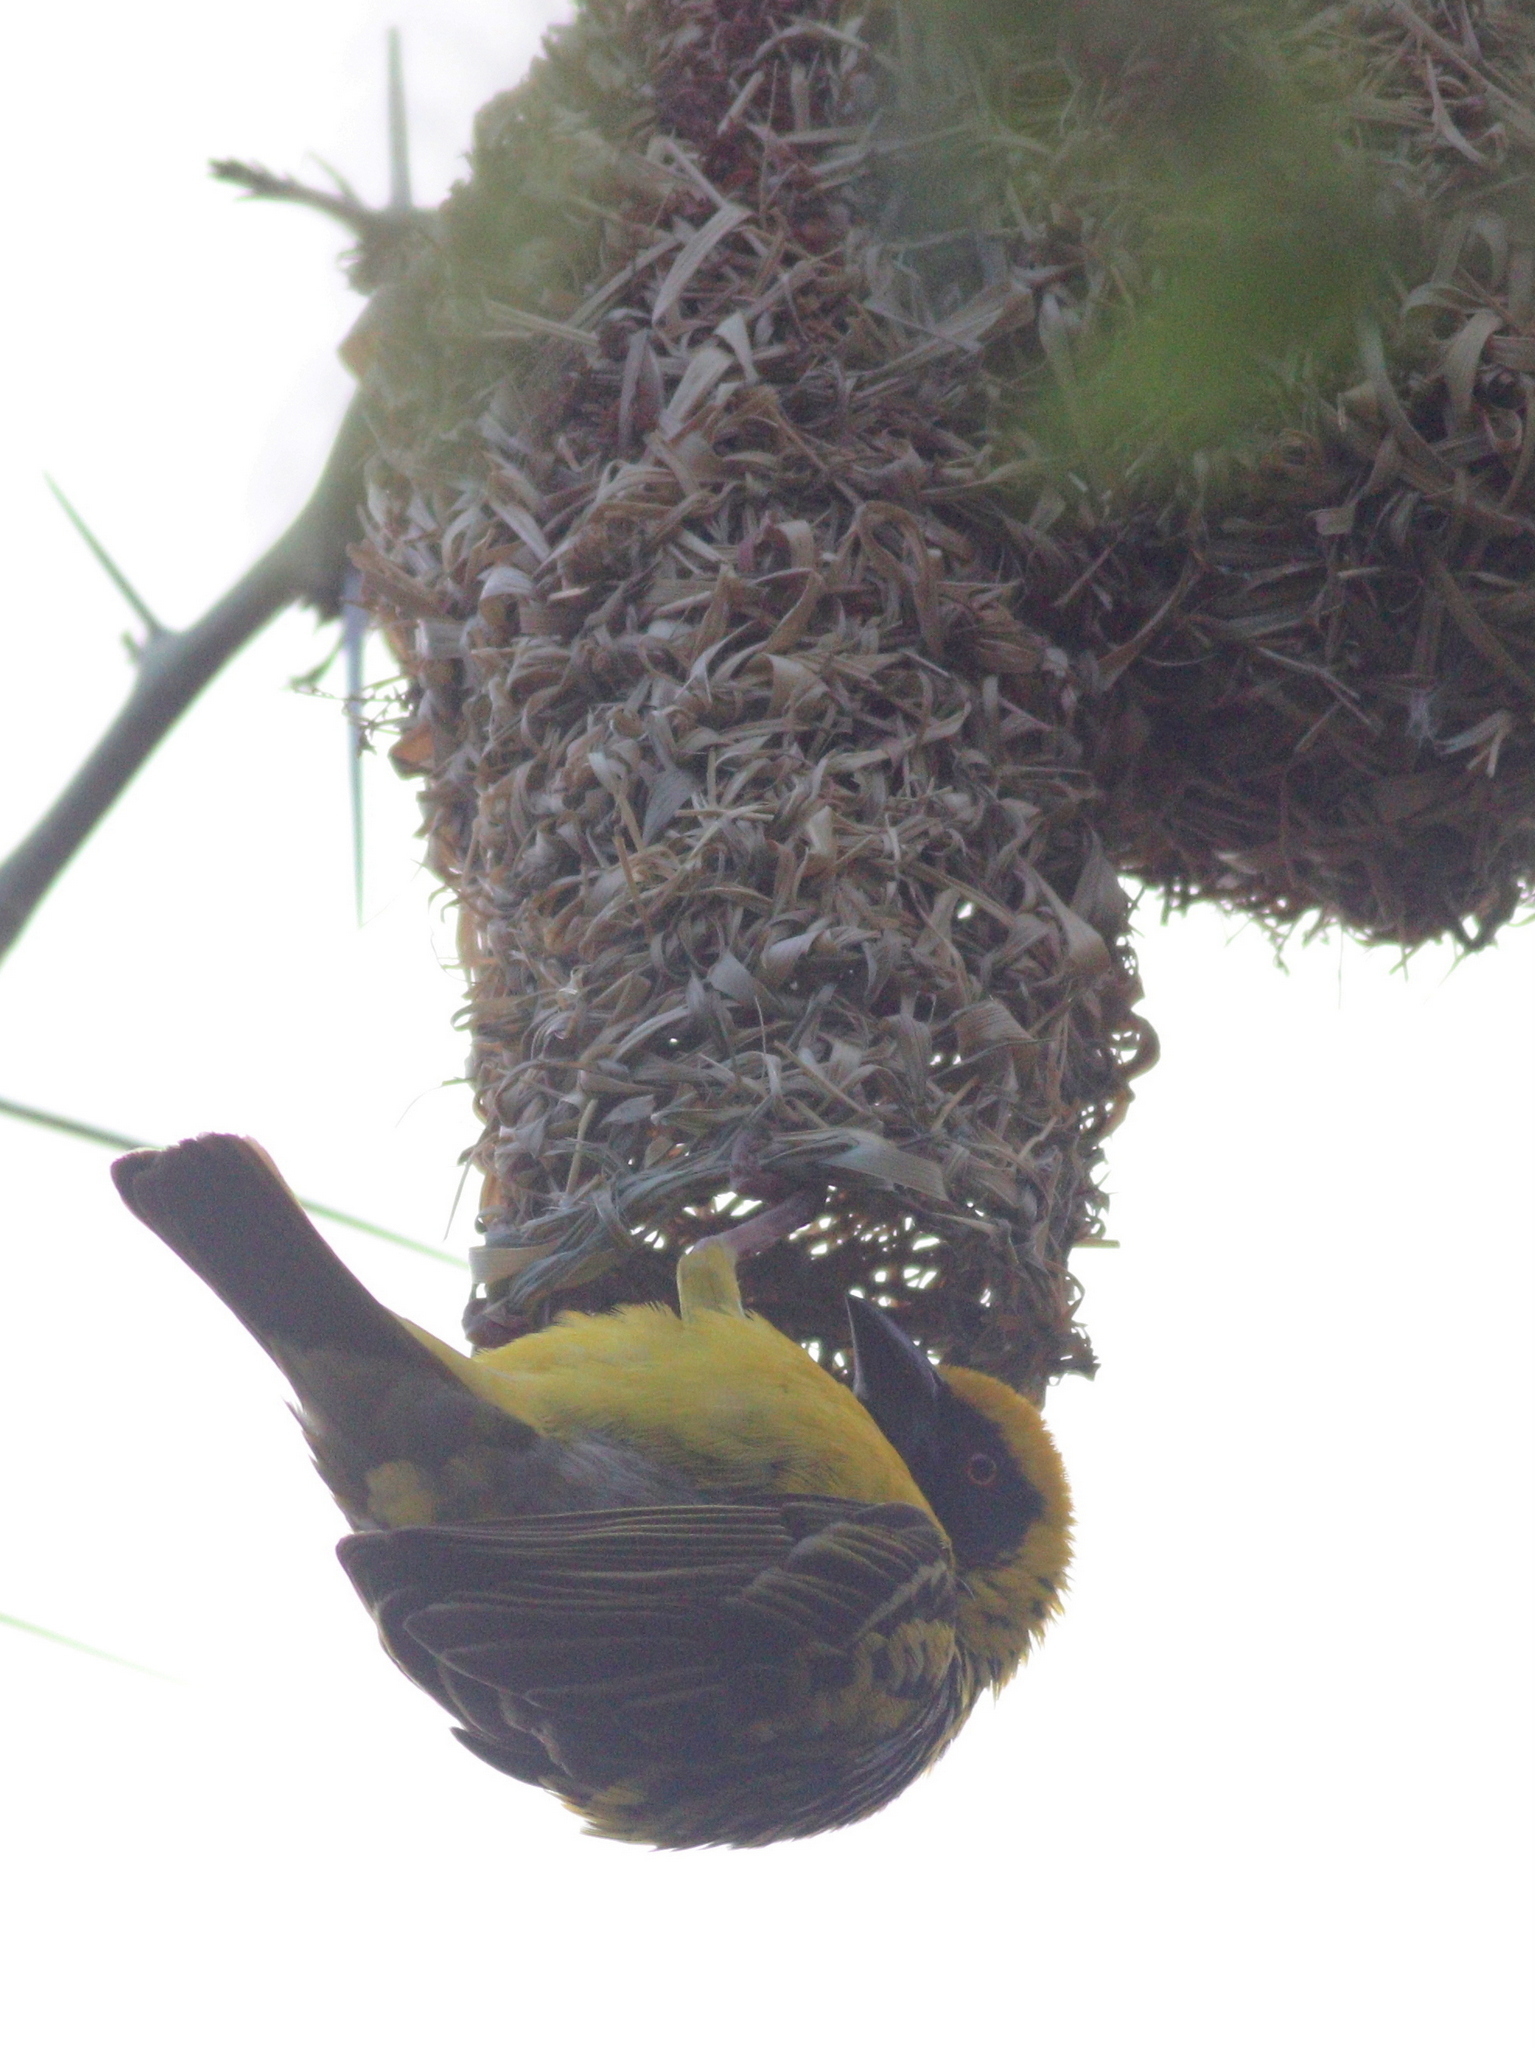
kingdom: Animalia
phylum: Chordata
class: Aves
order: Passeriformes
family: Ploceidae
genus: Ploceus
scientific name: Ploceus cucullatus
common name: Village weaver
